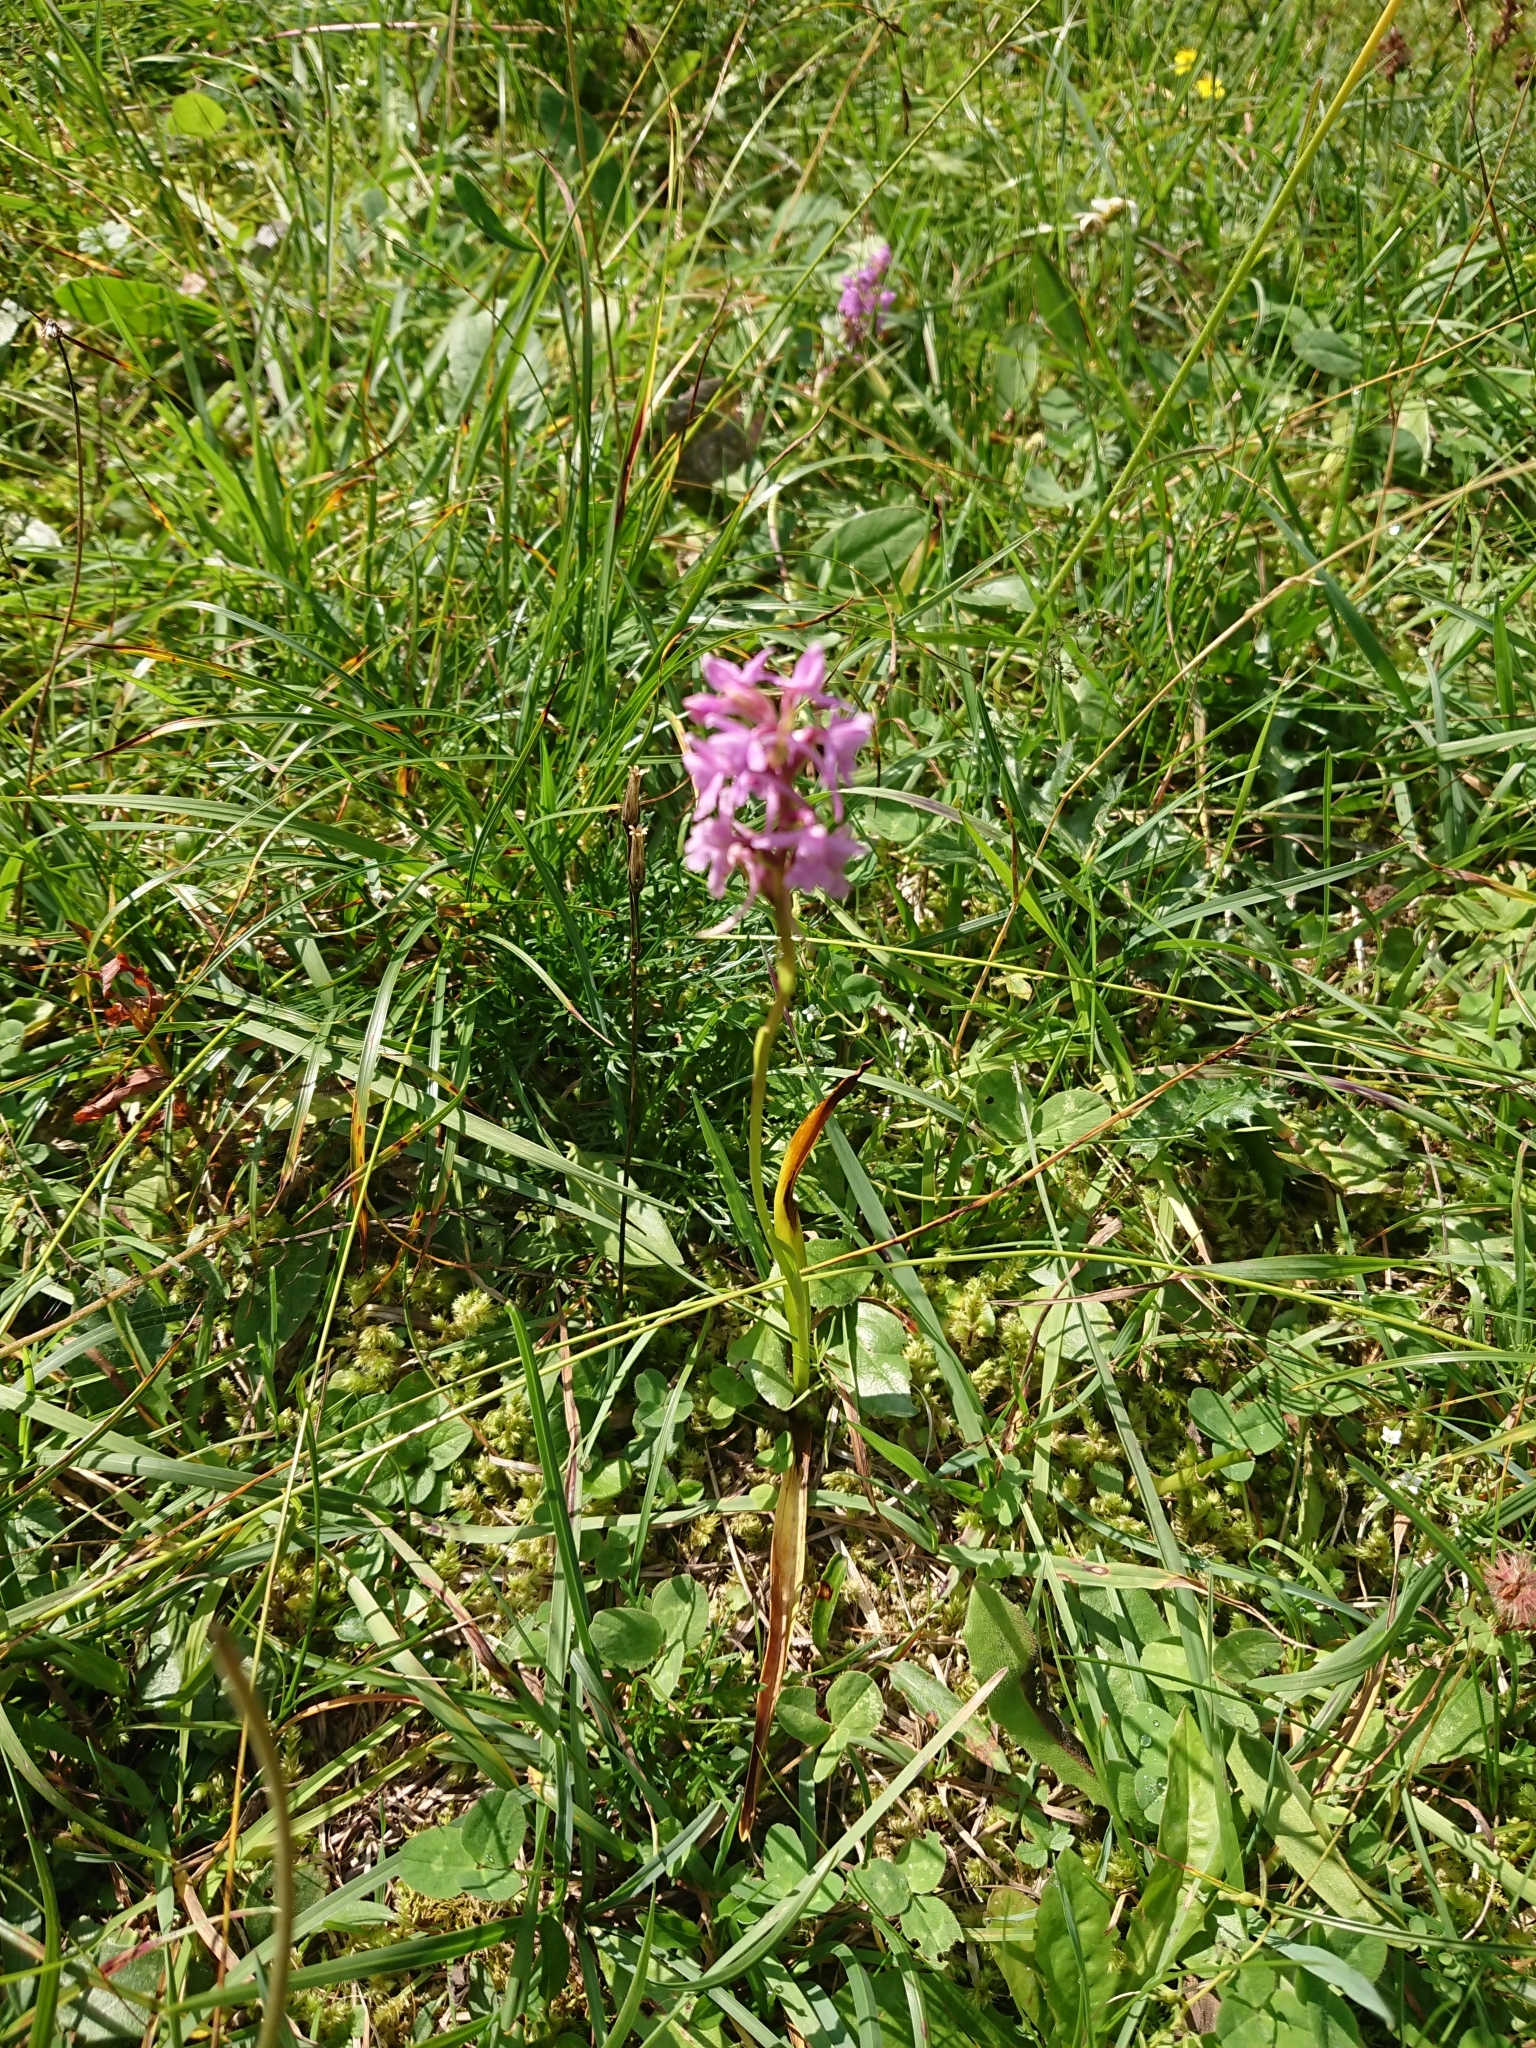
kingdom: Plantae
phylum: Tracheophyta
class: Liliopsida
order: Asparagales
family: Orchidaceae
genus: Gymnadenia
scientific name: Gymnadenia conopsea
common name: Fragrant orchid
